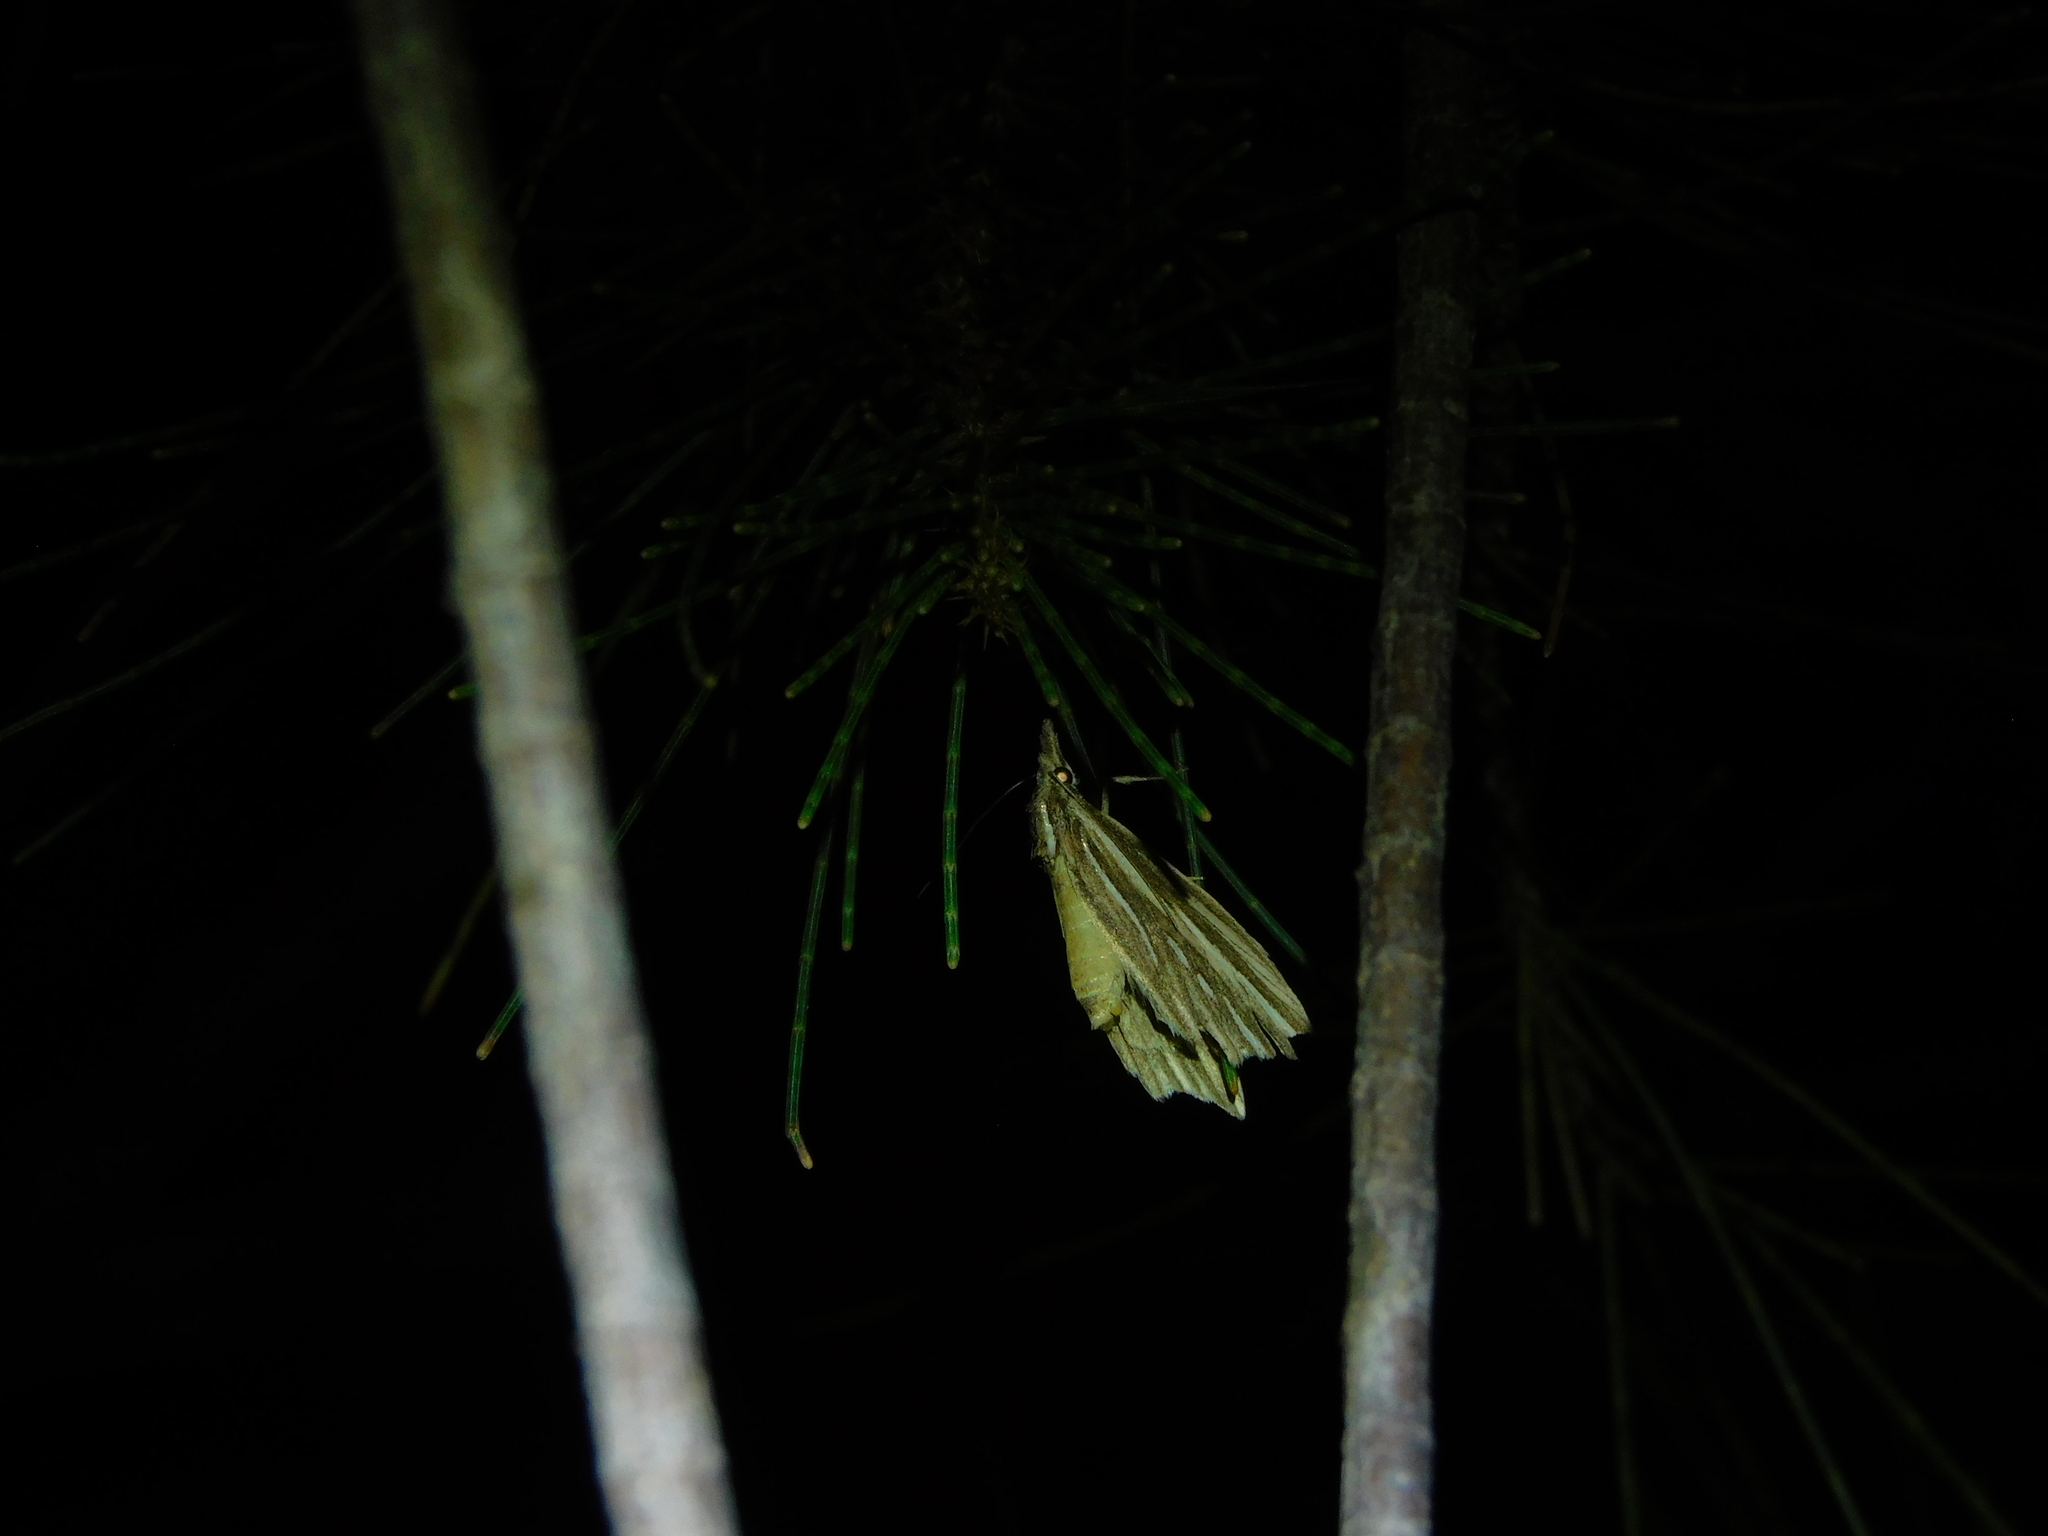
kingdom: Animalia
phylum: Arthropoda
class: Insecta
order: Lepidoptera
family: Erebidae
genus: Meyrickella
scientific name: Meyrickella ruptellus
